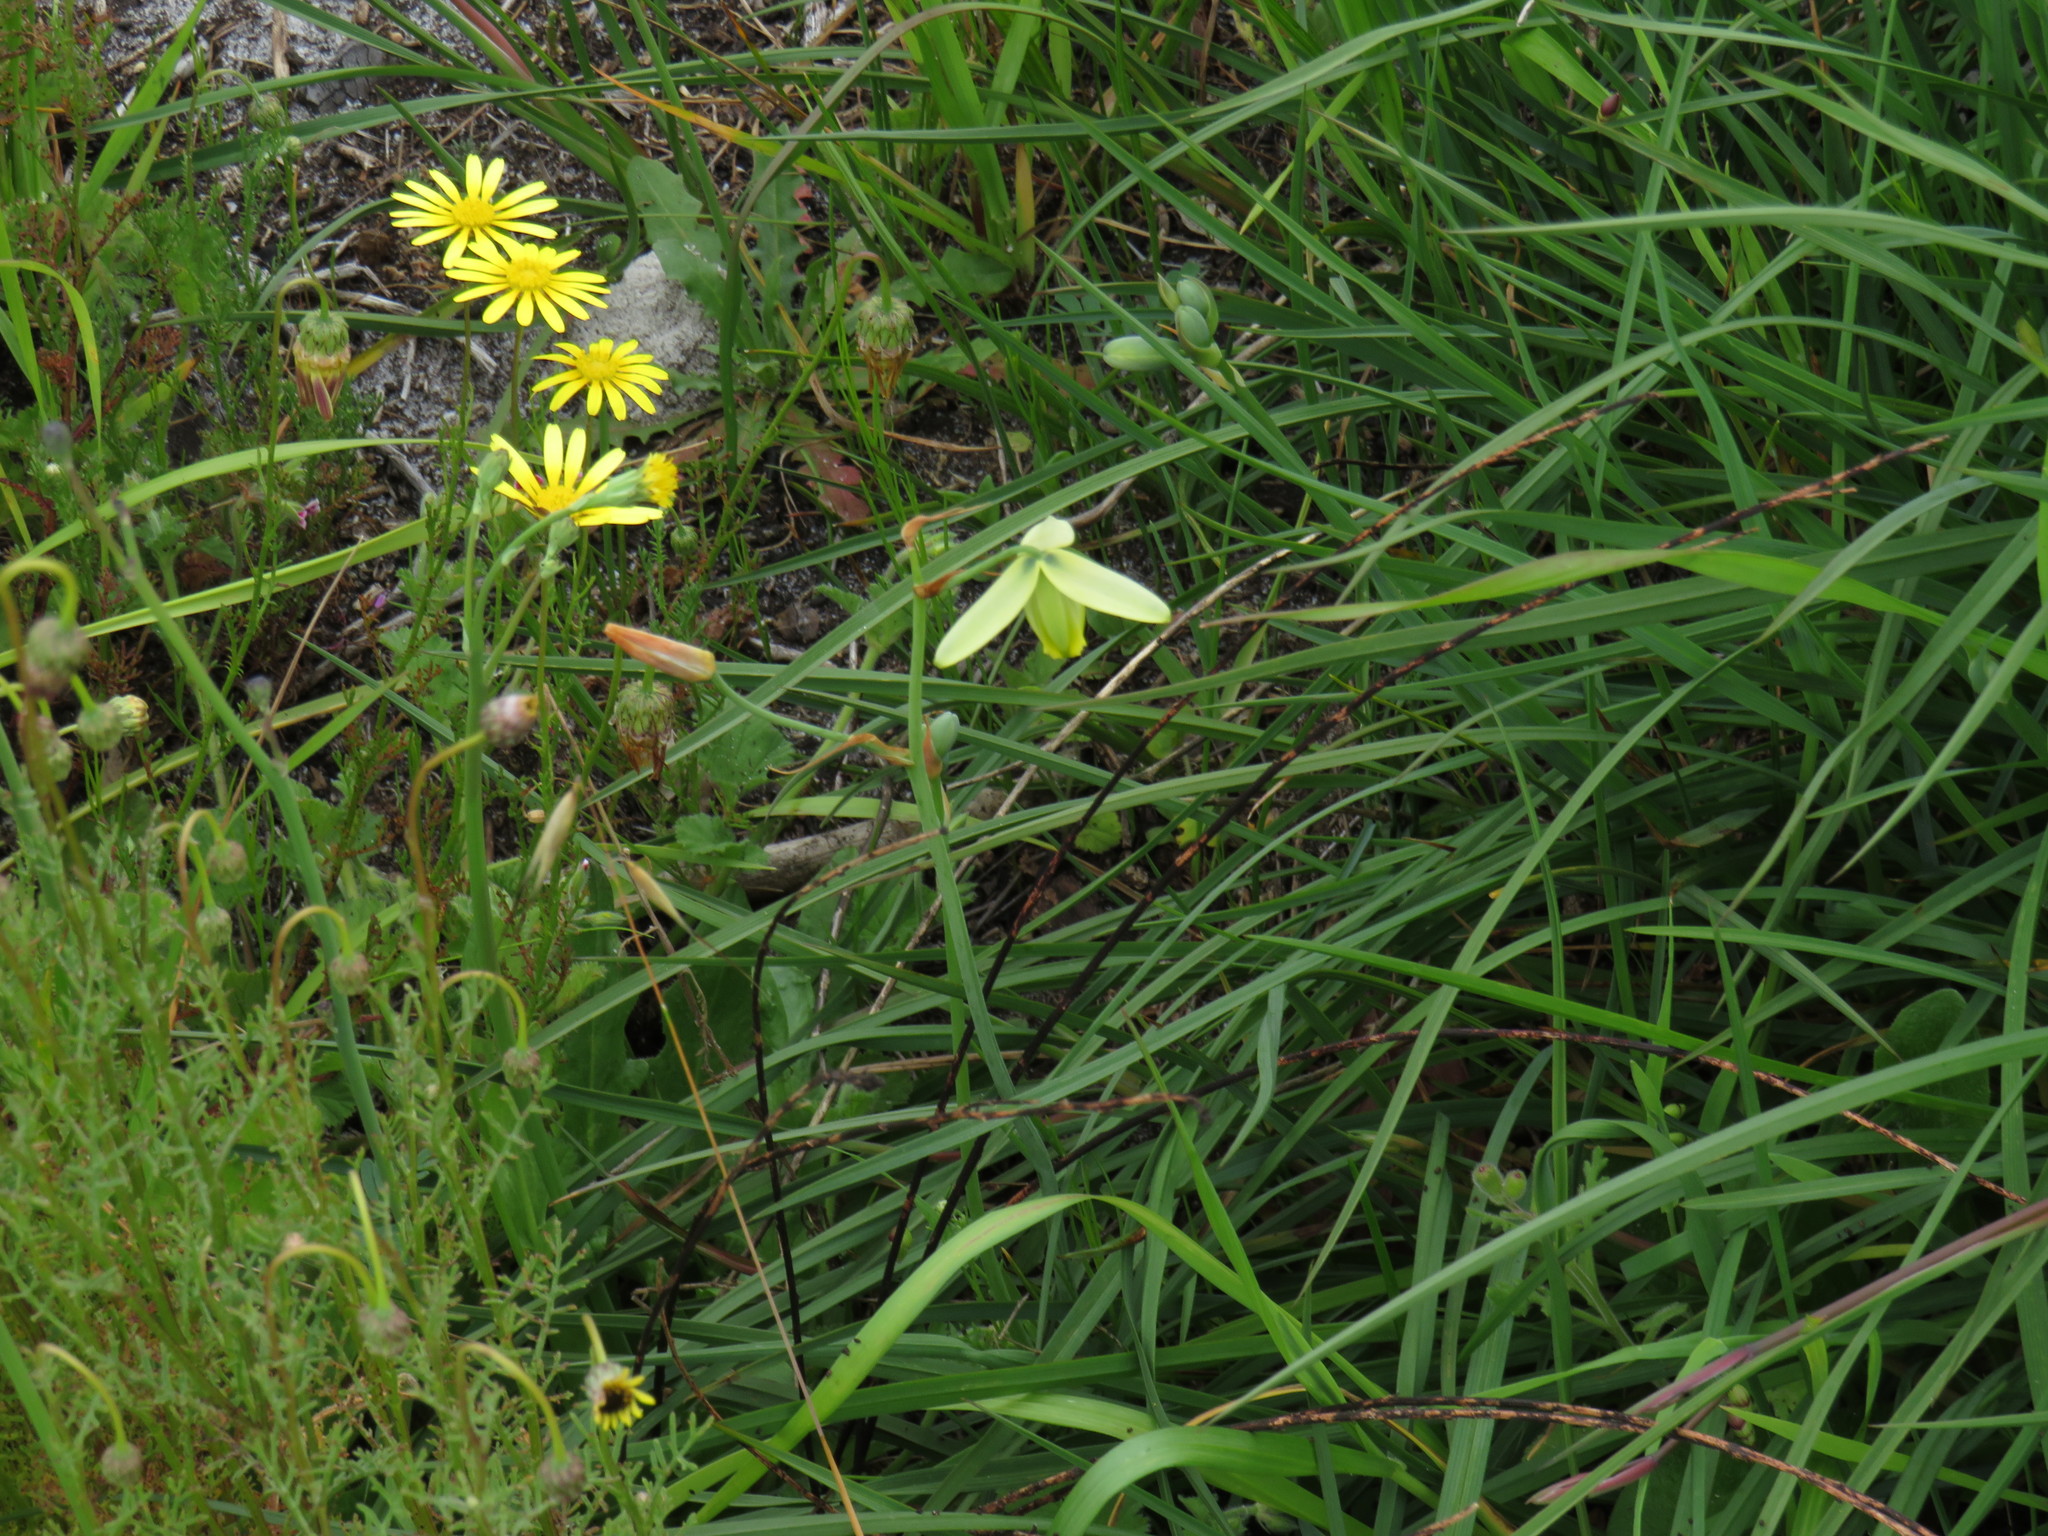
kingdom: Plantae
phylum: Tracheophyta
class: Liliopsida
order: Asparagales
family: Asparagaceae
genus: Albuca
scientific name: Albuca cooperi
